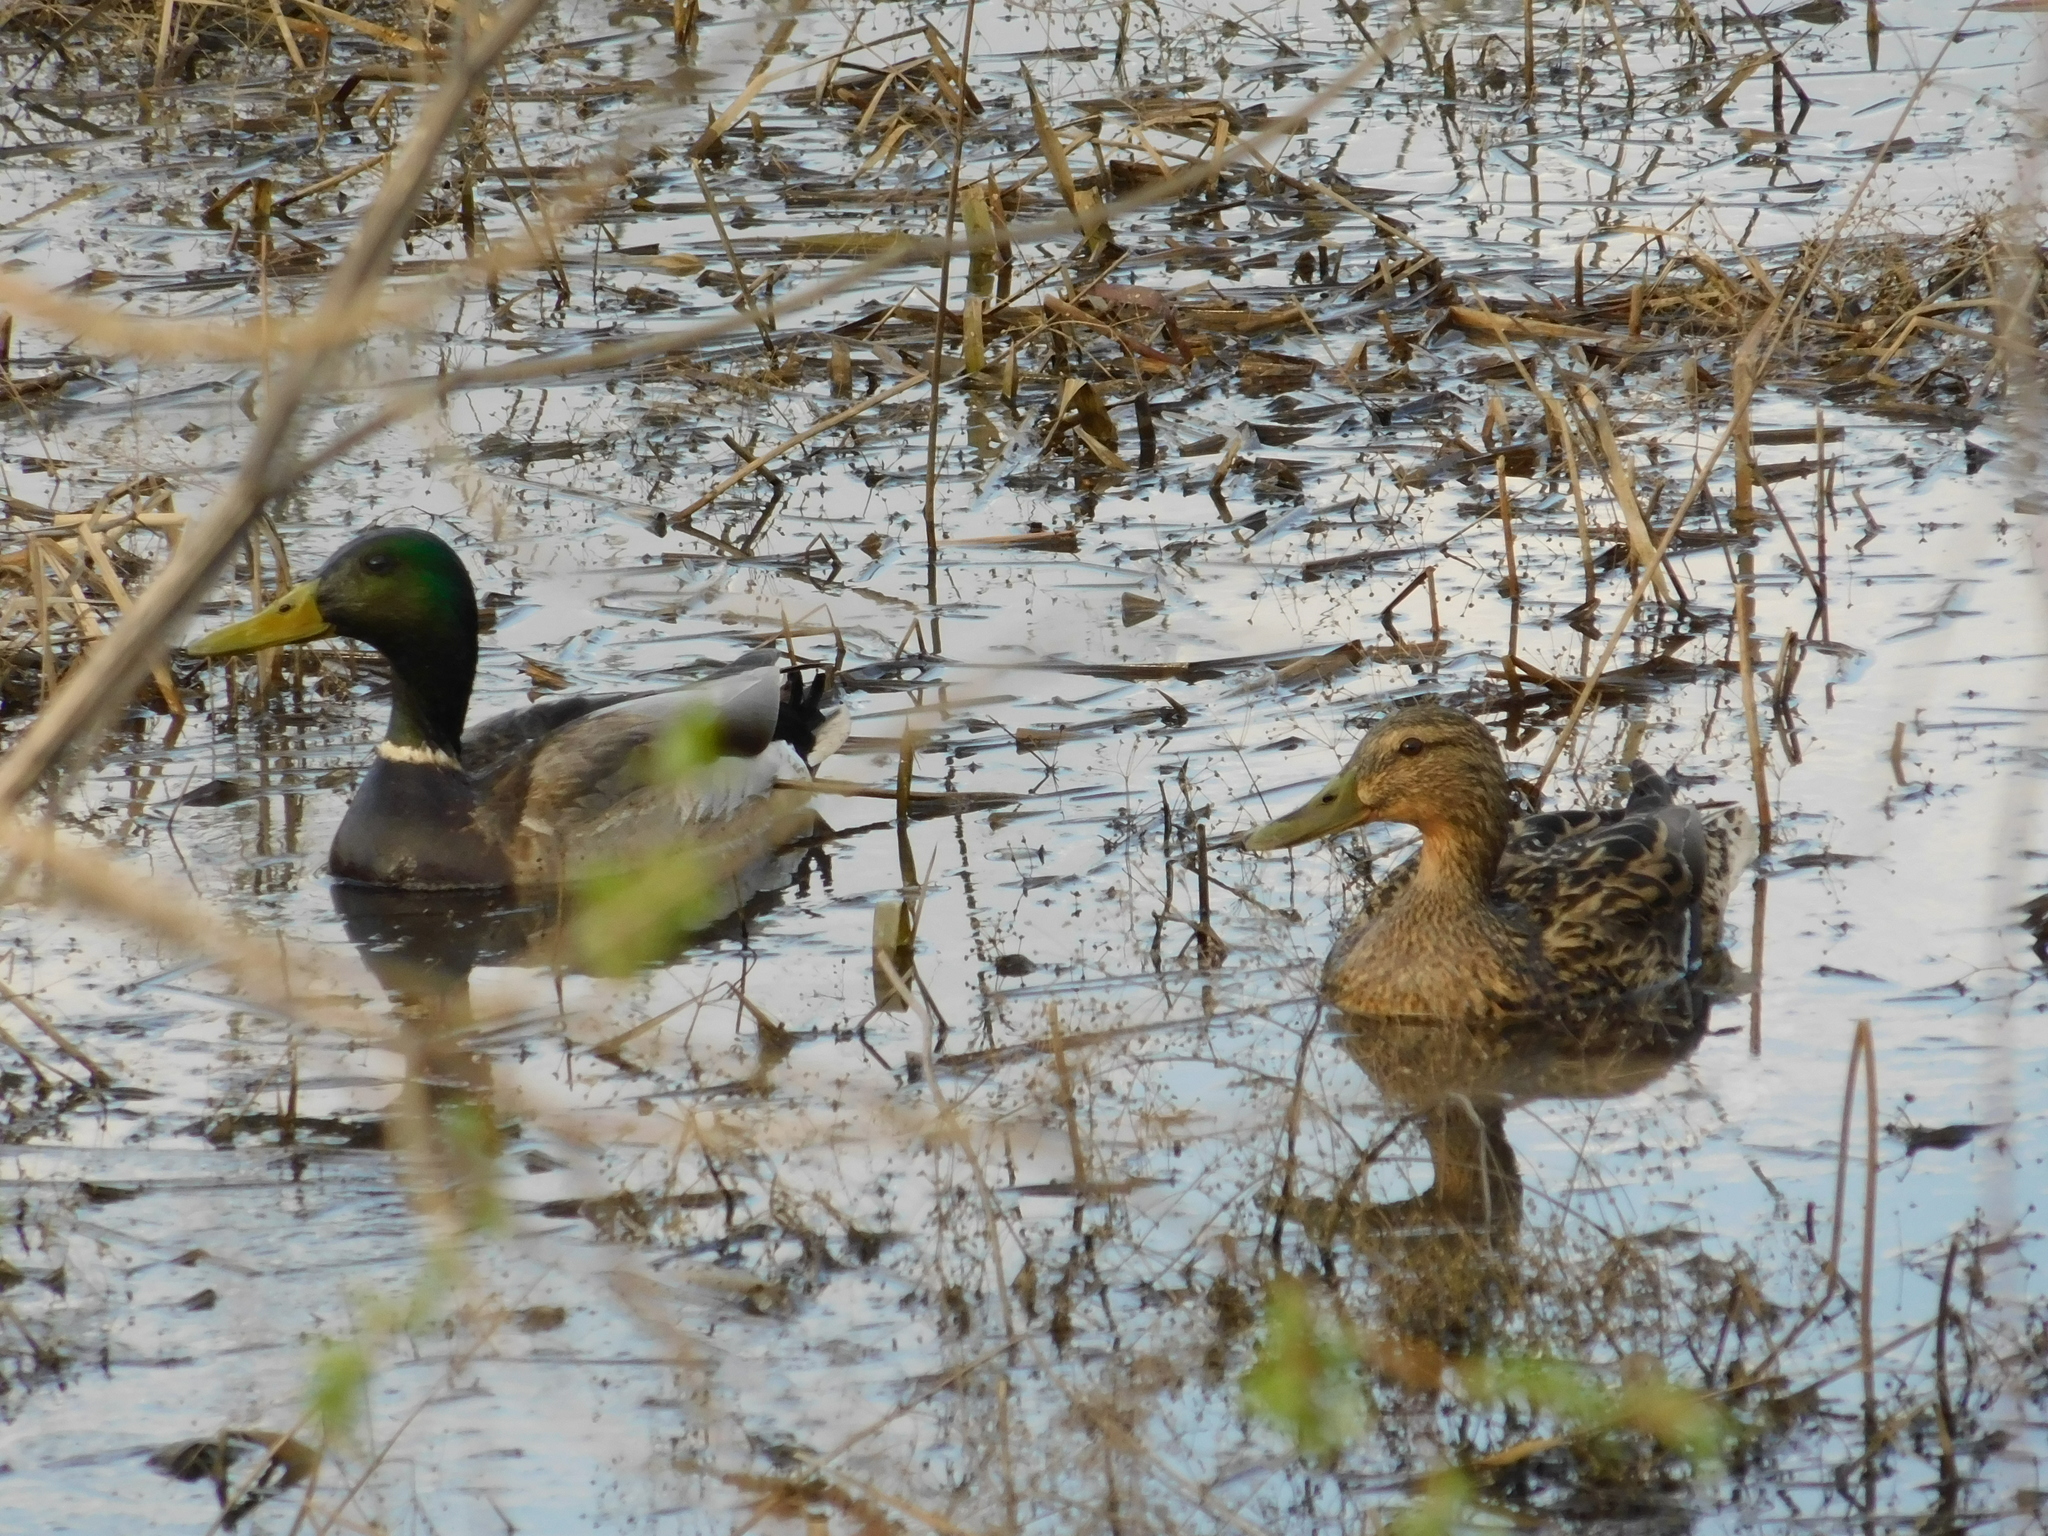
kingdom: Animalia
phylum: Chordata
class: Aves
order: Anseriformes
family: Anatidae
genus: Anas
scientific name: Anas platyrhynchos
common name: Mallard
